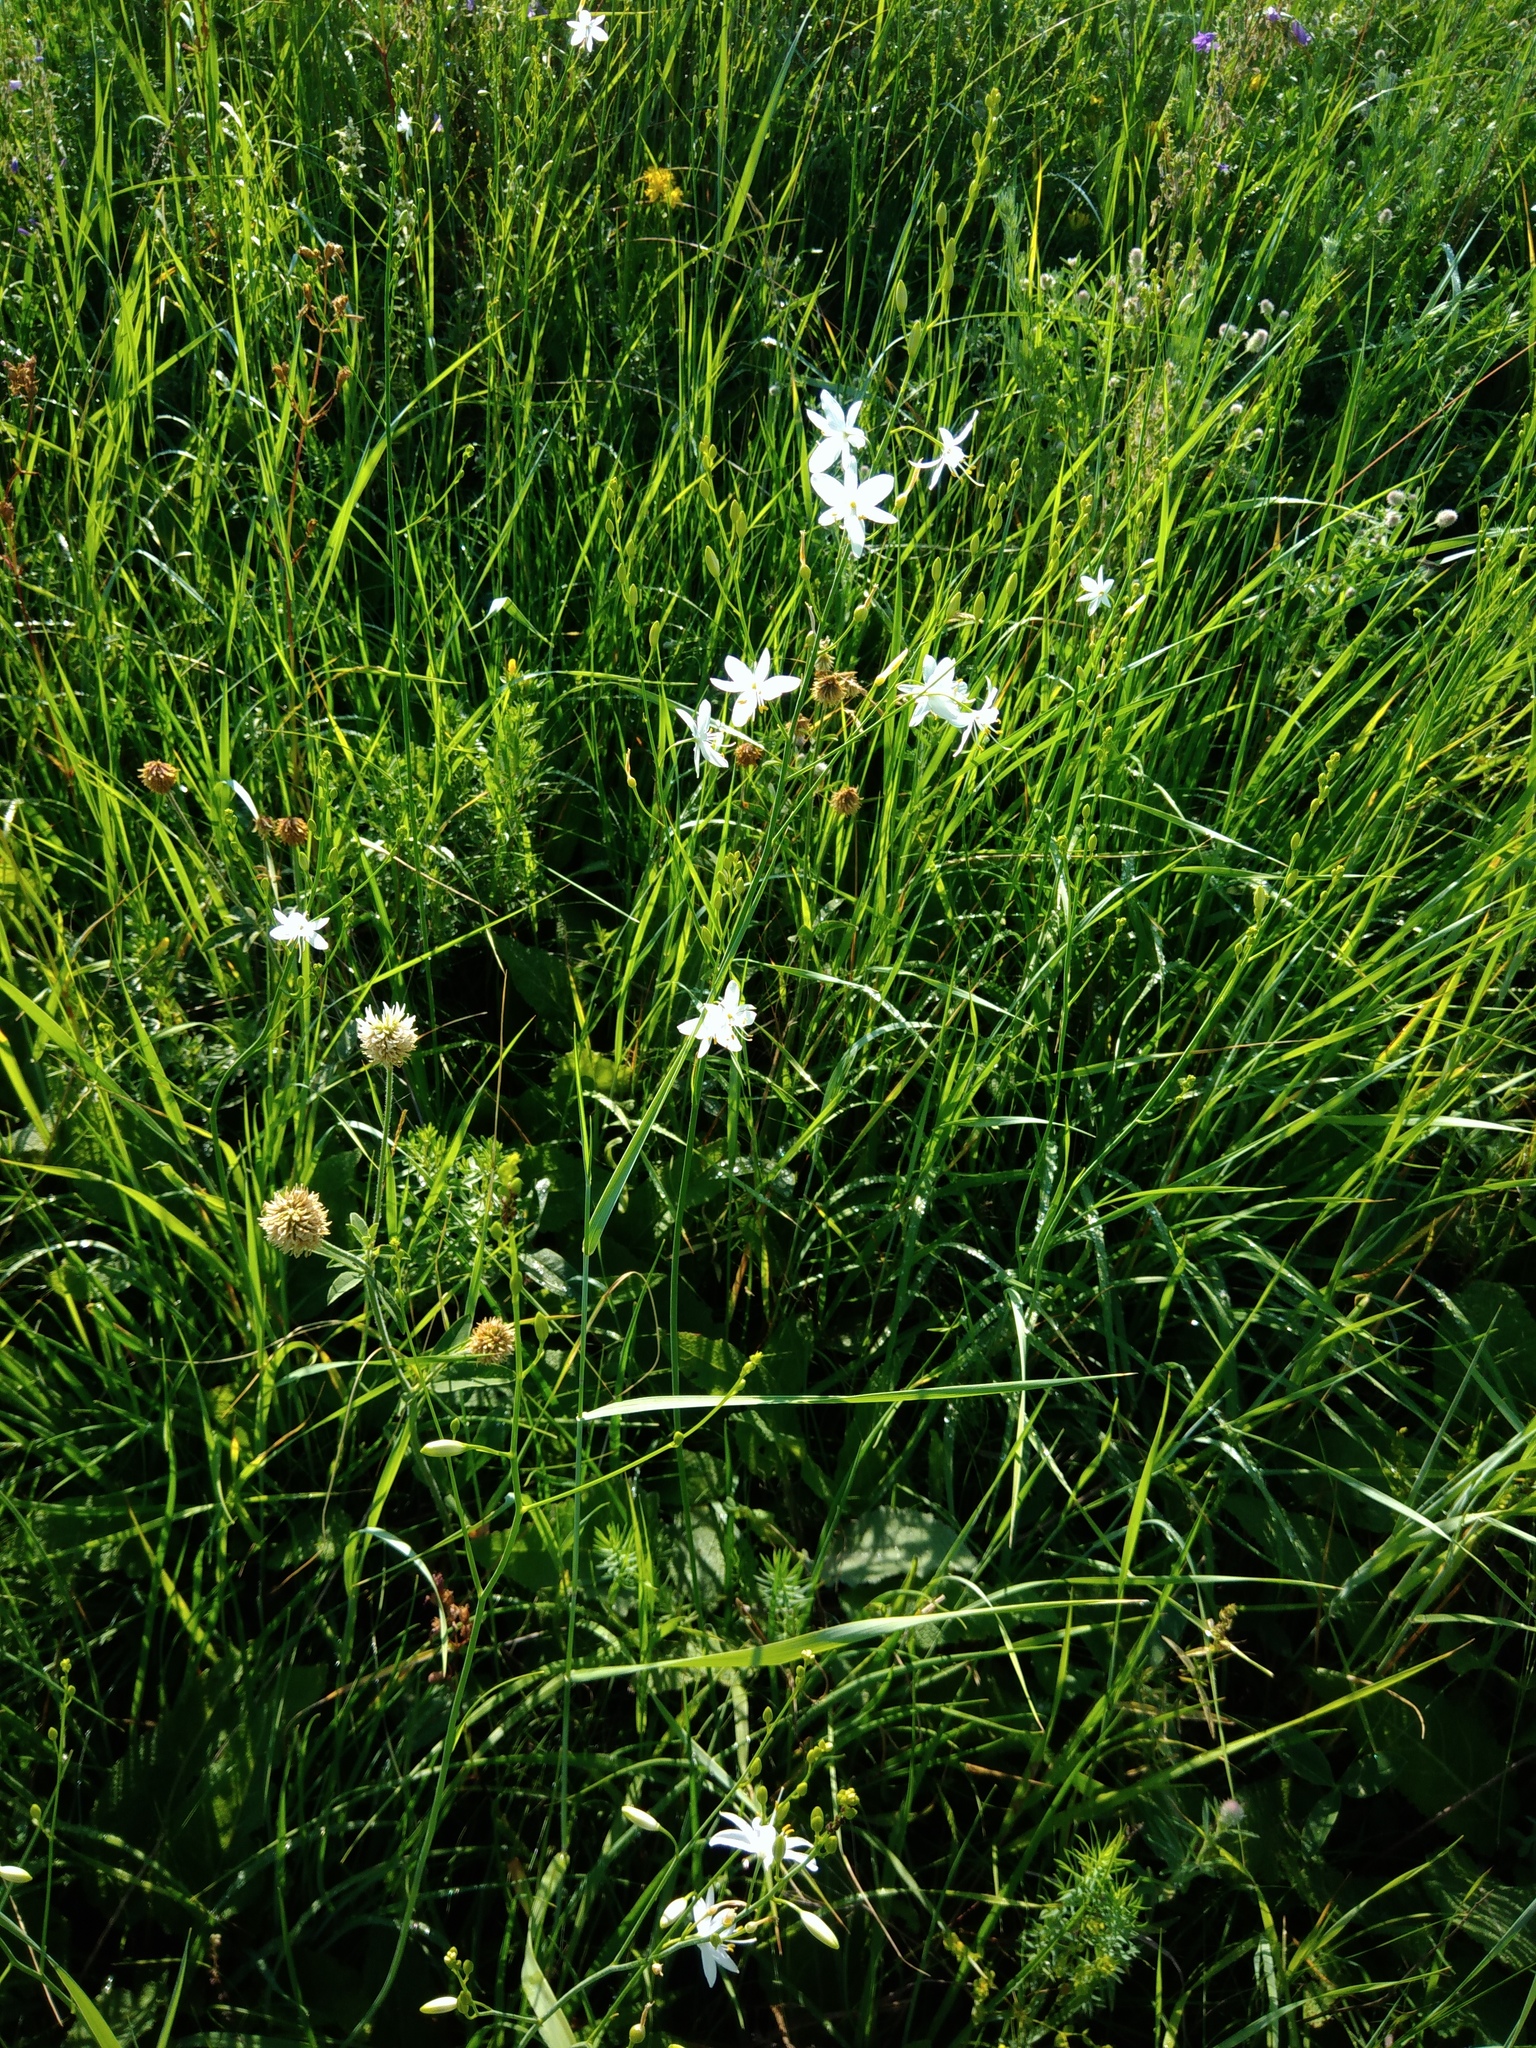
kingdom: Plantae
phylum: Tracheophyta
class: Liliopsida
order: Asparagales
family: Asparagaceae
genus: Anthericum
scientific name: Anthericum ramosum
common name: Branched st. bernard's-lily
